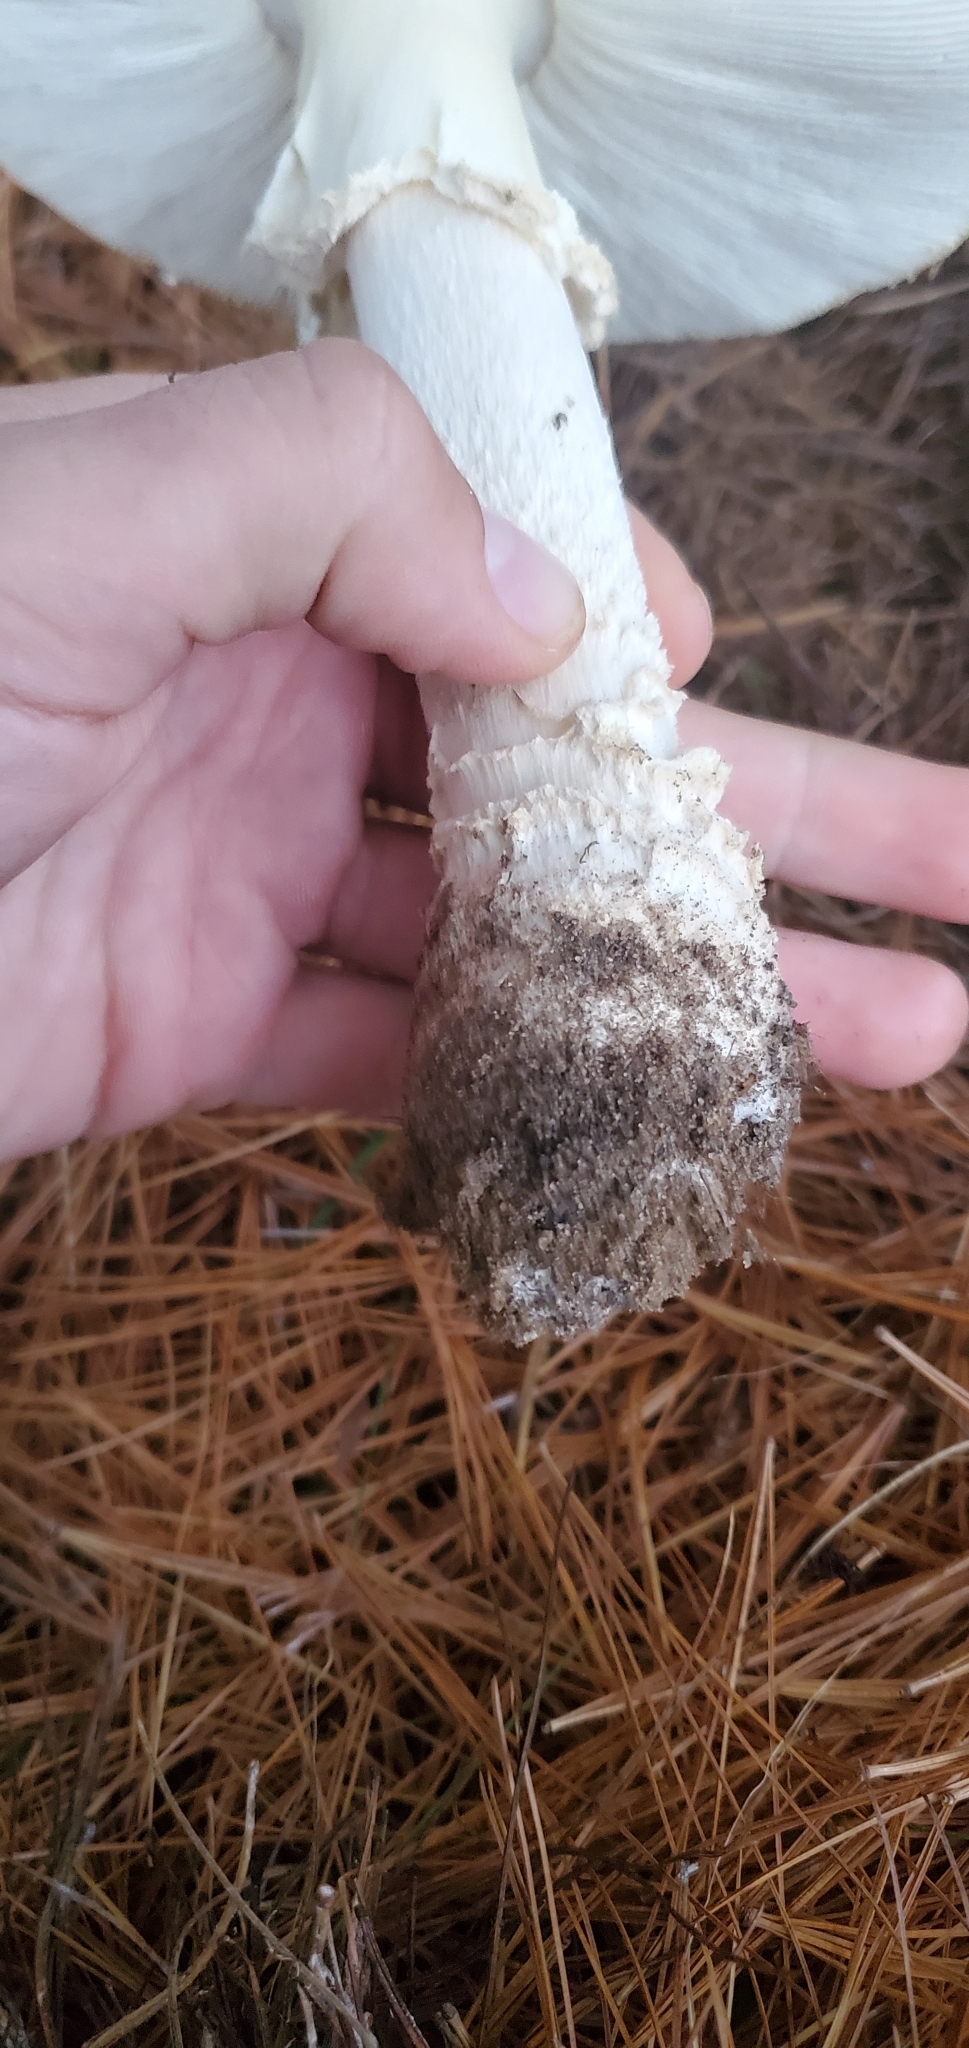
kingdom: Fungi
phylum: Basidiomycota
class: Agaricomycetes
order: Agaricales
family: Amanitaceae
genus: Amanita
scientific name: Amanita muscaria
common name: Fly agaric
